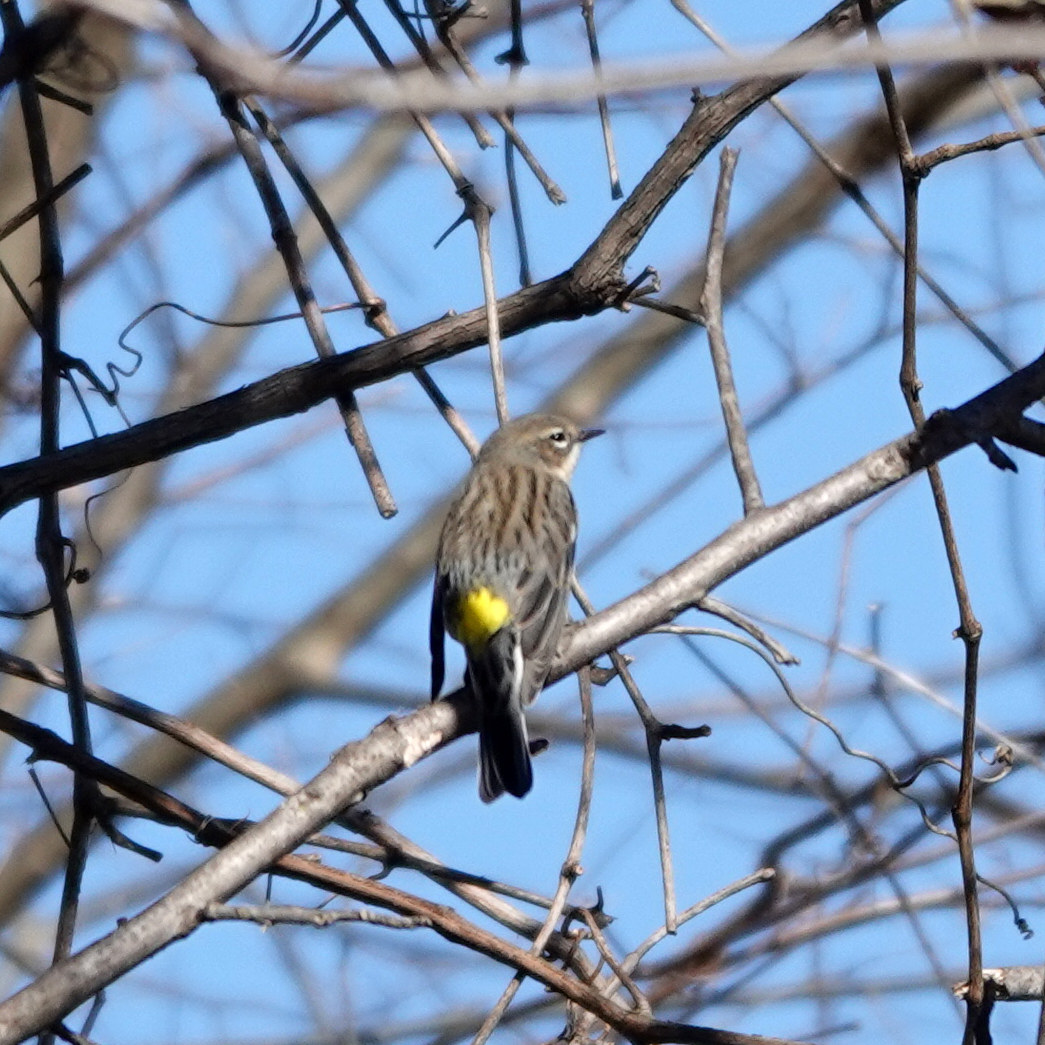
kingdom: Animalia
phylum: Chordata
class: Aves
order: Passeriformes
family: Parulidae
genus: Setophaga
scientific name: Setophaga coronata
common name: Myrtle warbler
